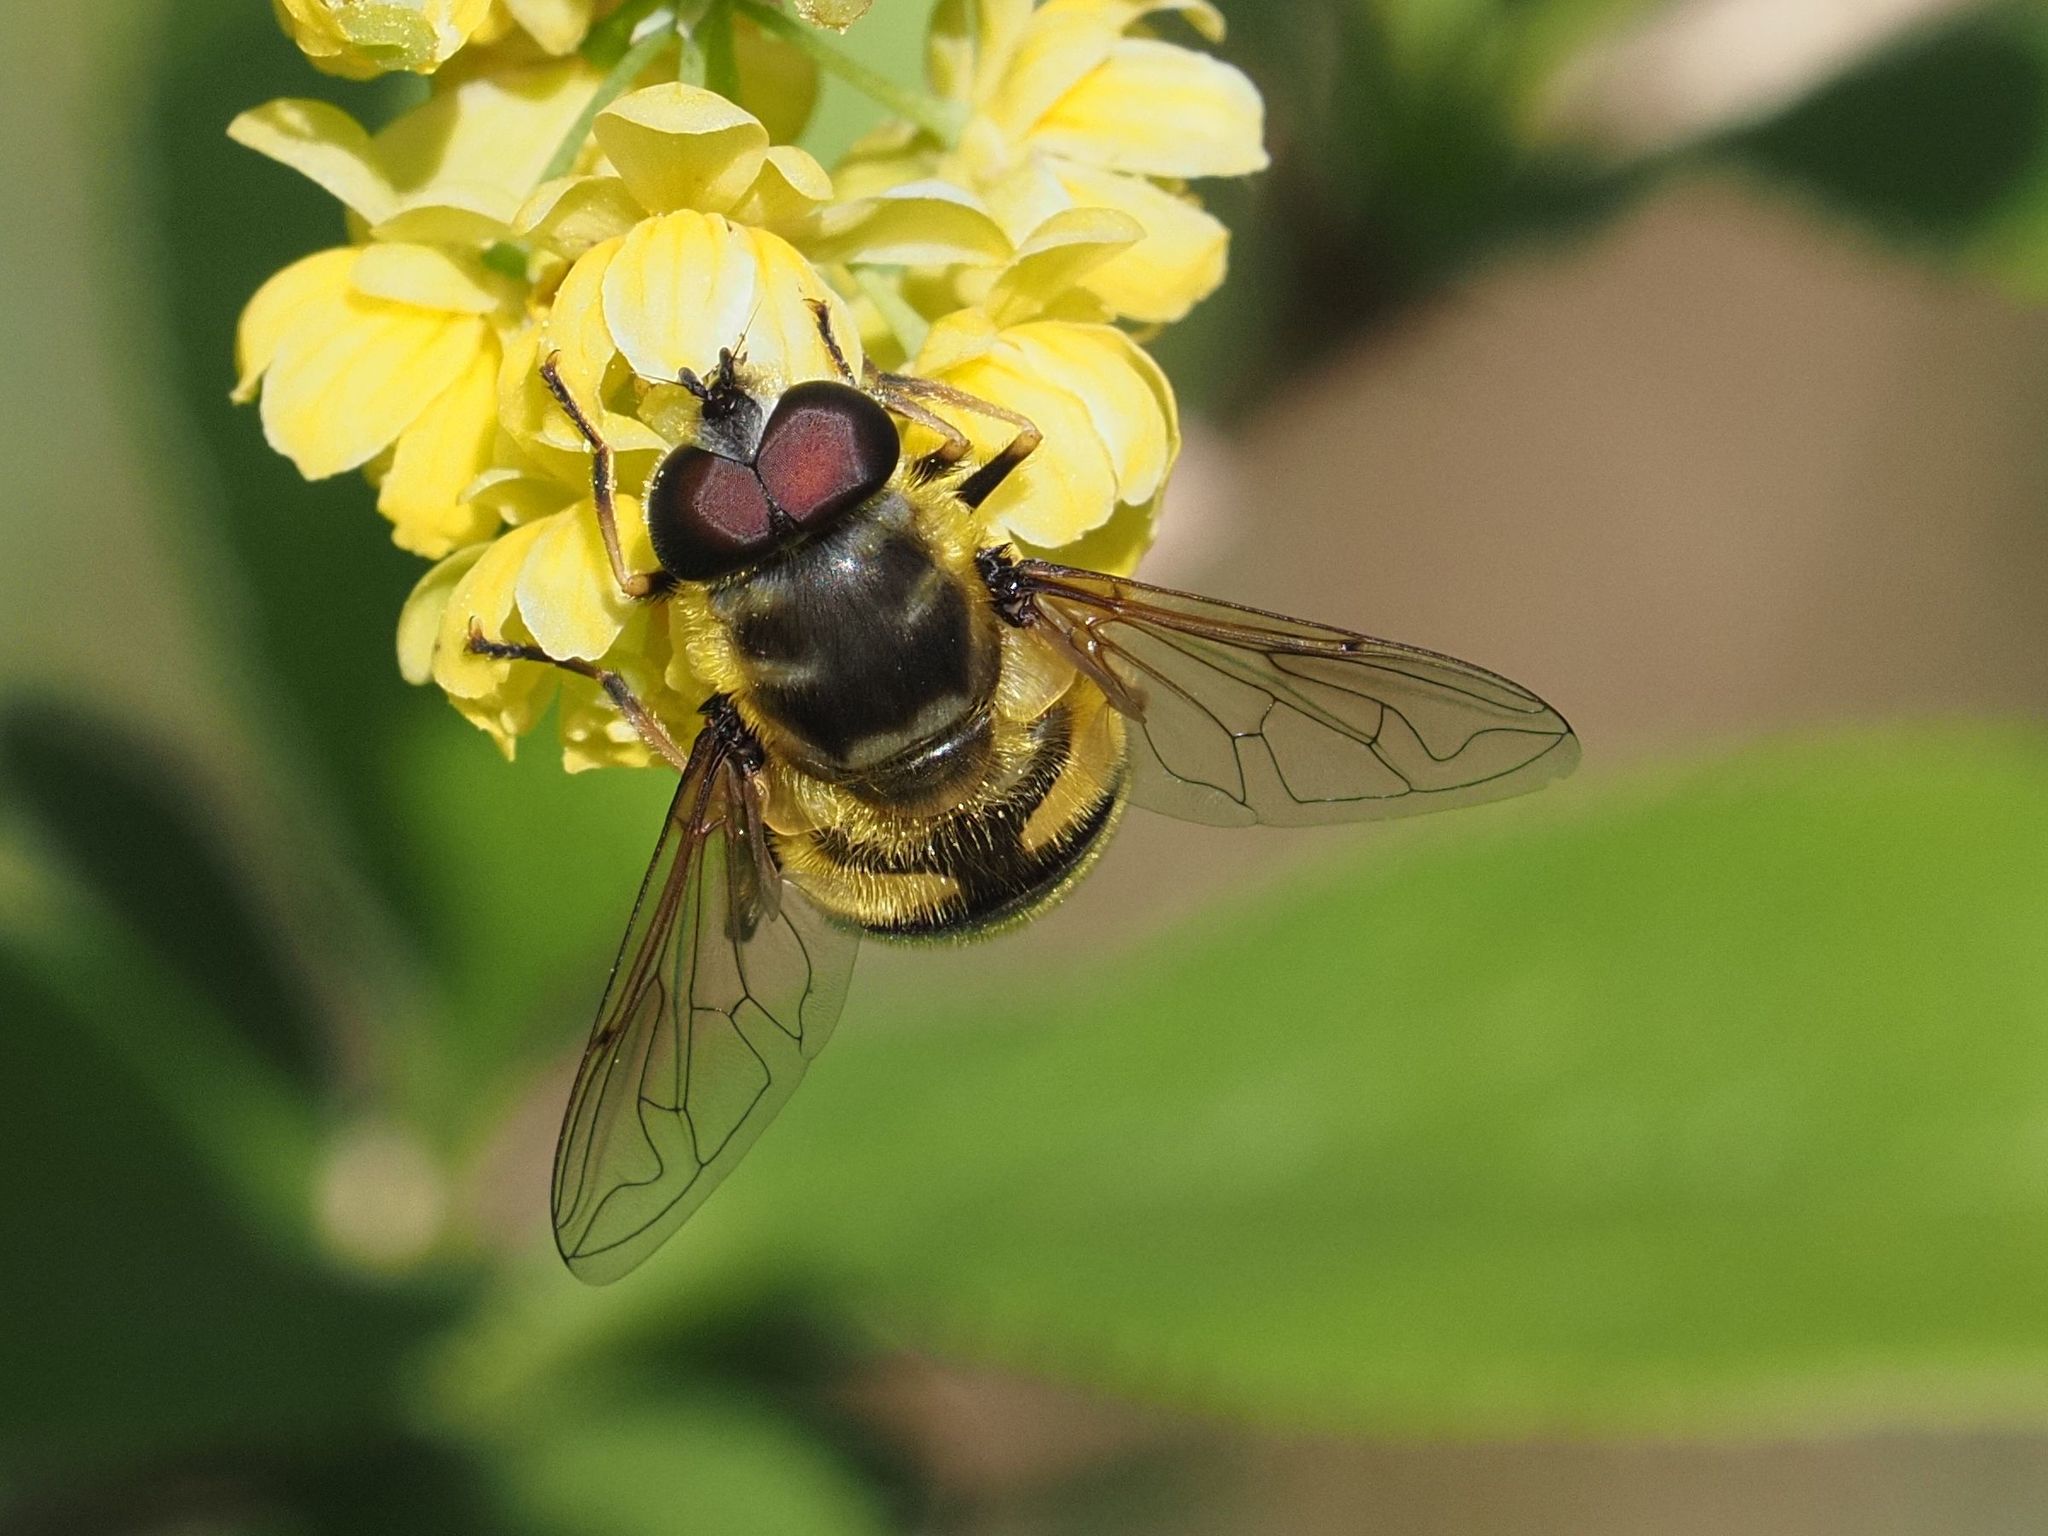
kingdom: Animalia
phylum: Arthropoda
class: Insecta
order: Diptera
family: Syrphidae
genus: Myathropa
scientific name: Myathropa florea
